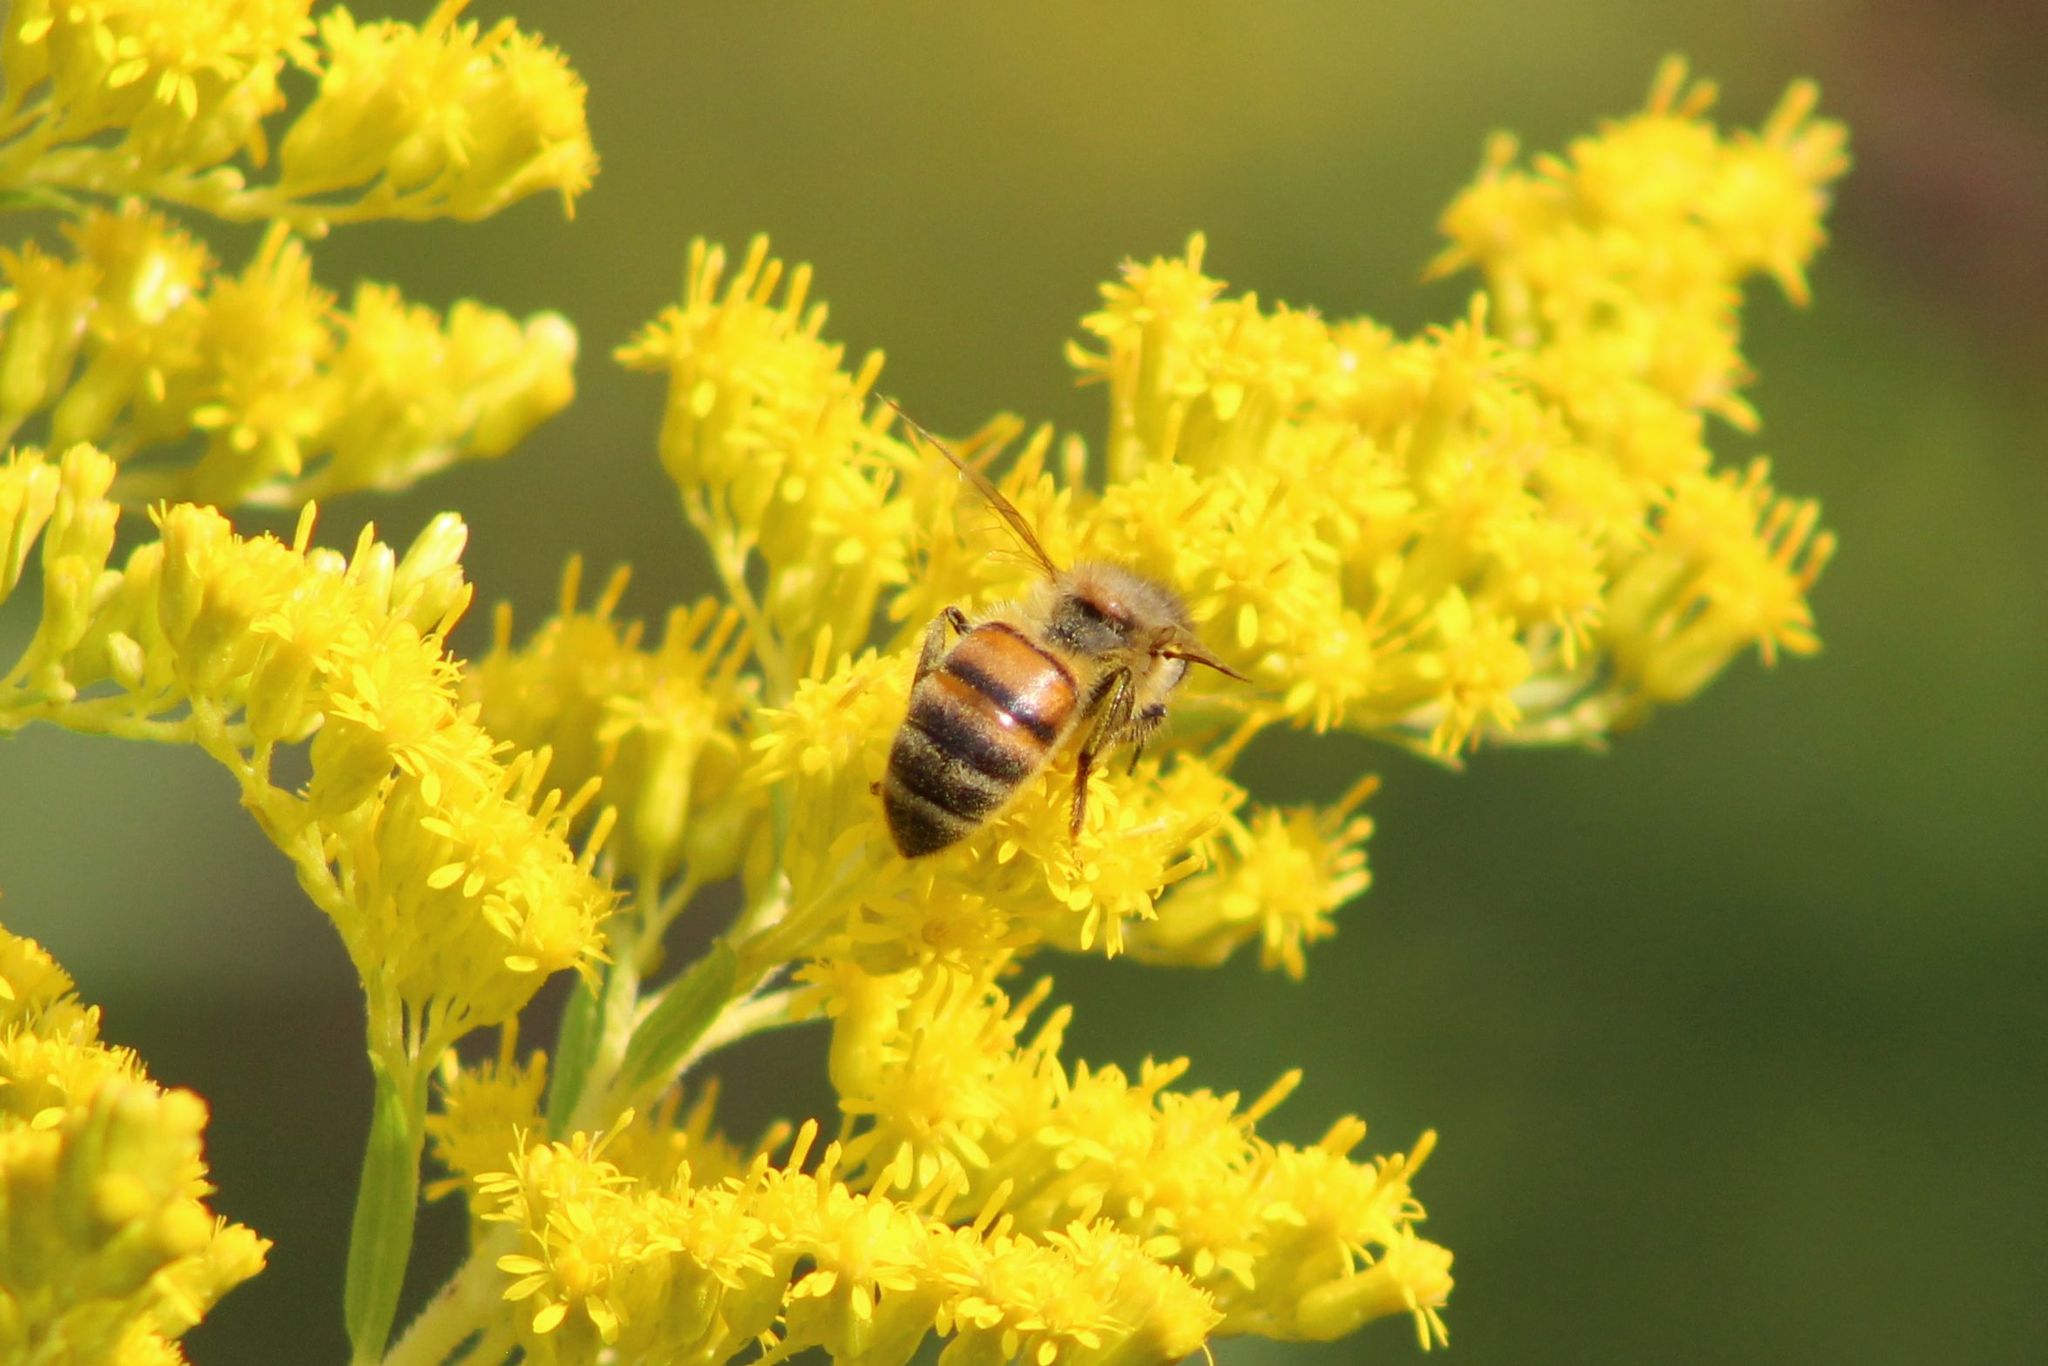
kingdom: Animalia
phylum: Arthropoda
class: Insecta
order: Hymenoptera
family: Apidae
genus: Apis
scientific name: Apis mellifera
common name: Honey bee
